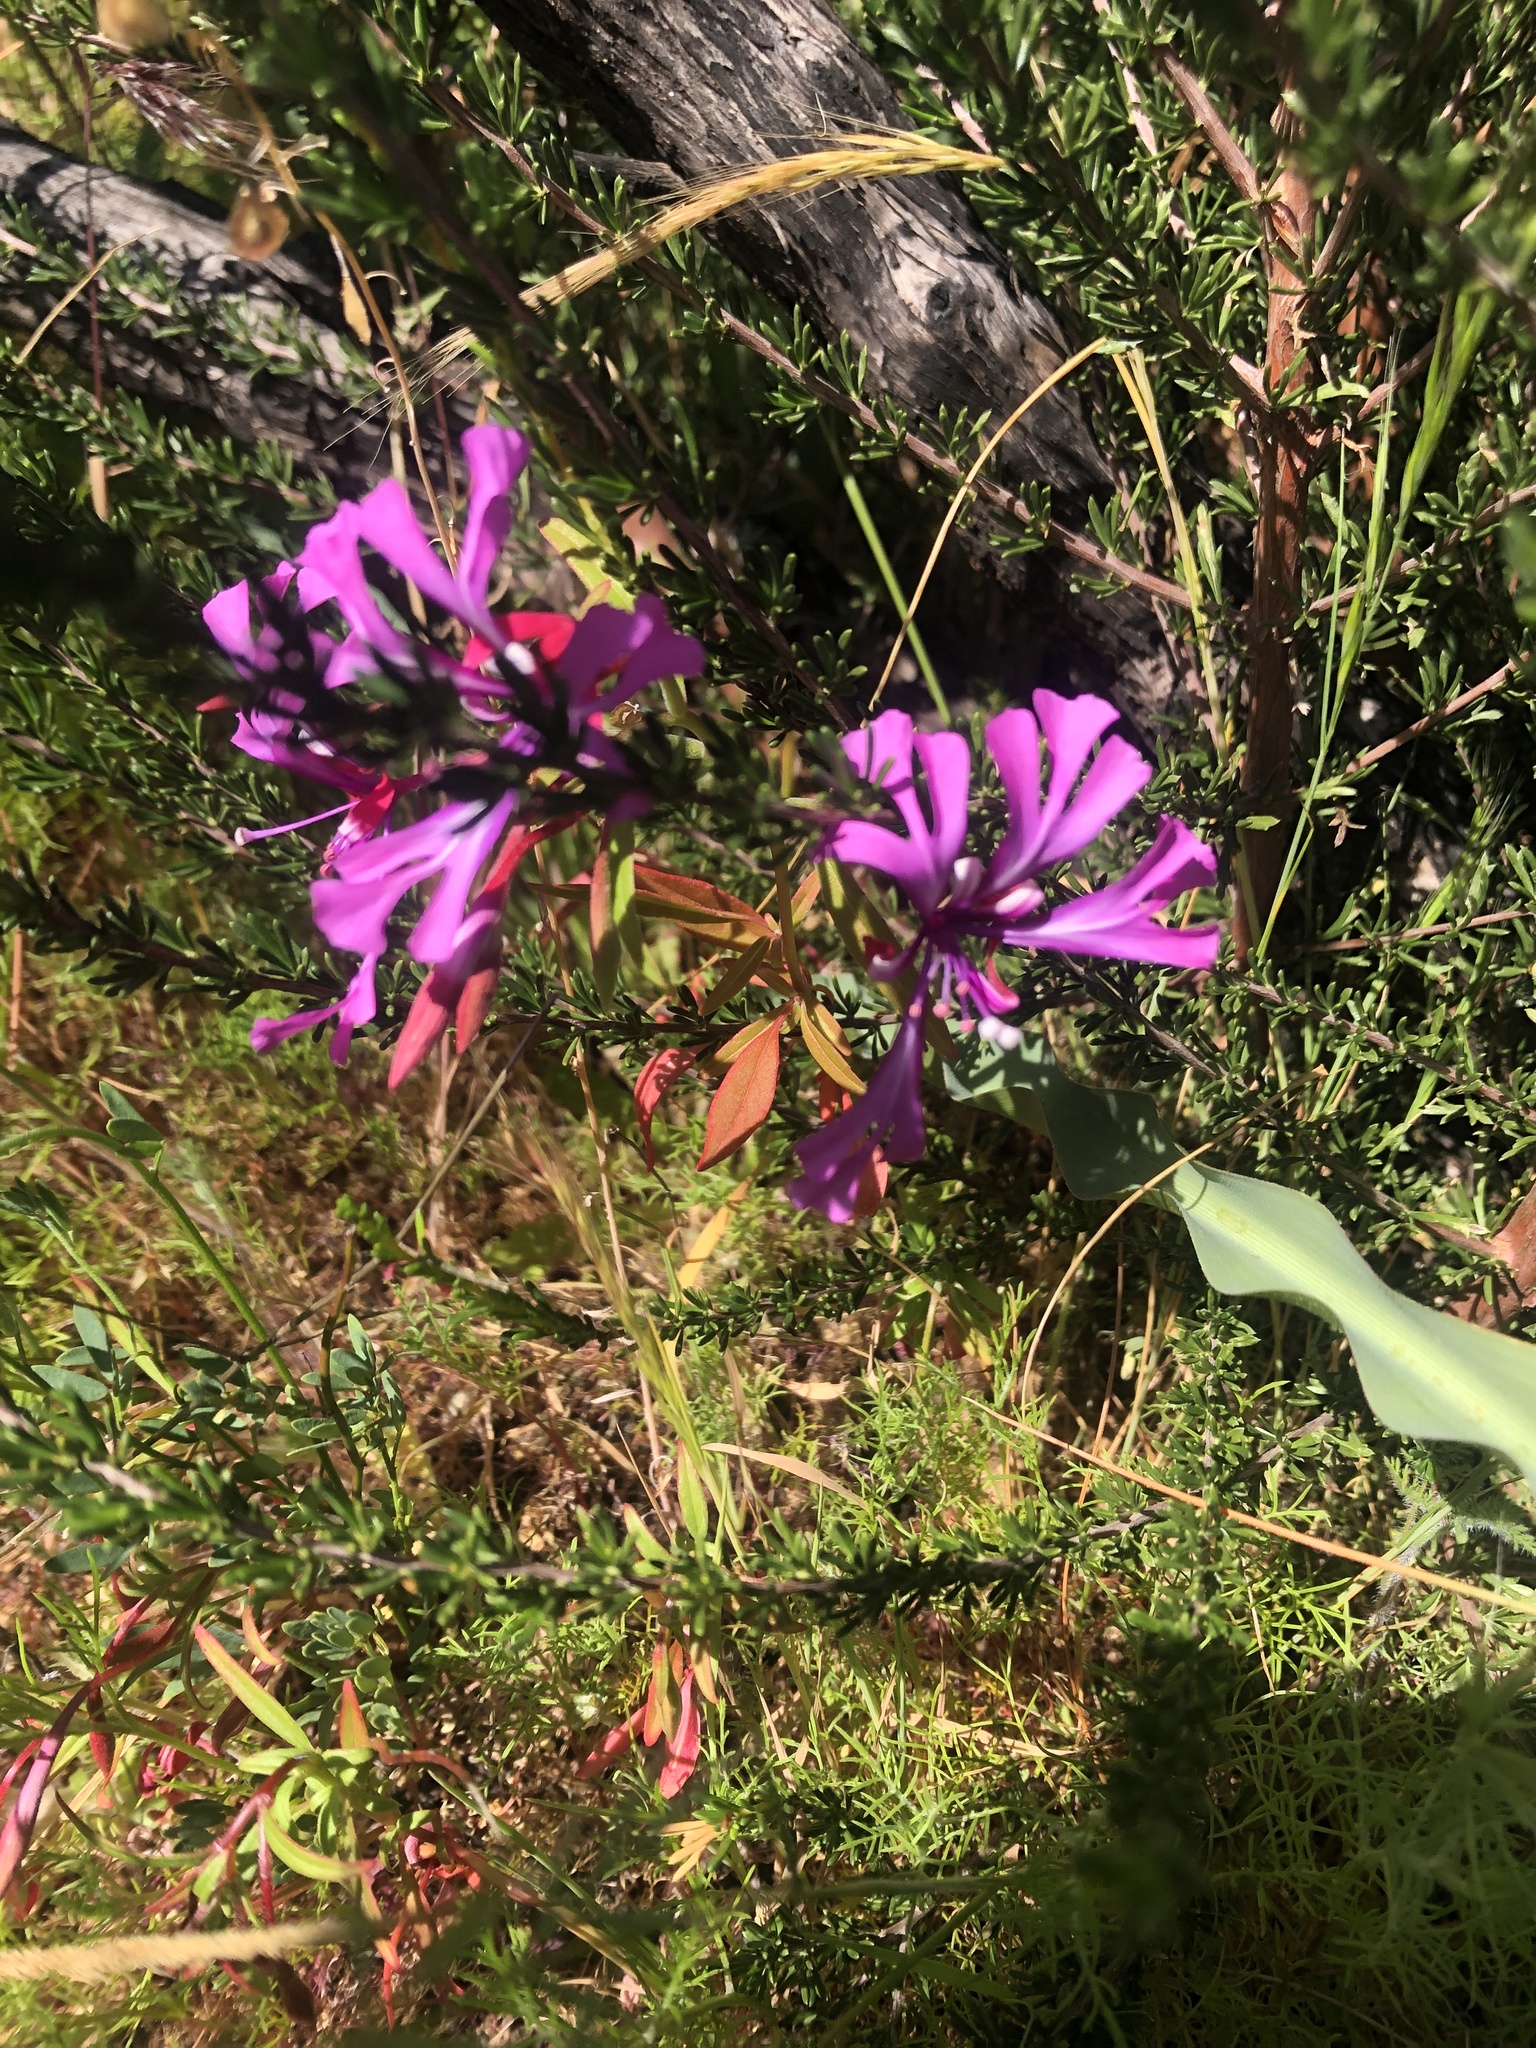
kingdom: Plantae
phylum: Tracheophyta
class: Magnoliopsida
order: Myrtales
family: Onagraceae
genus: Clarkia
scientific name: Clarkia concinna
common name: Red-ribbons
